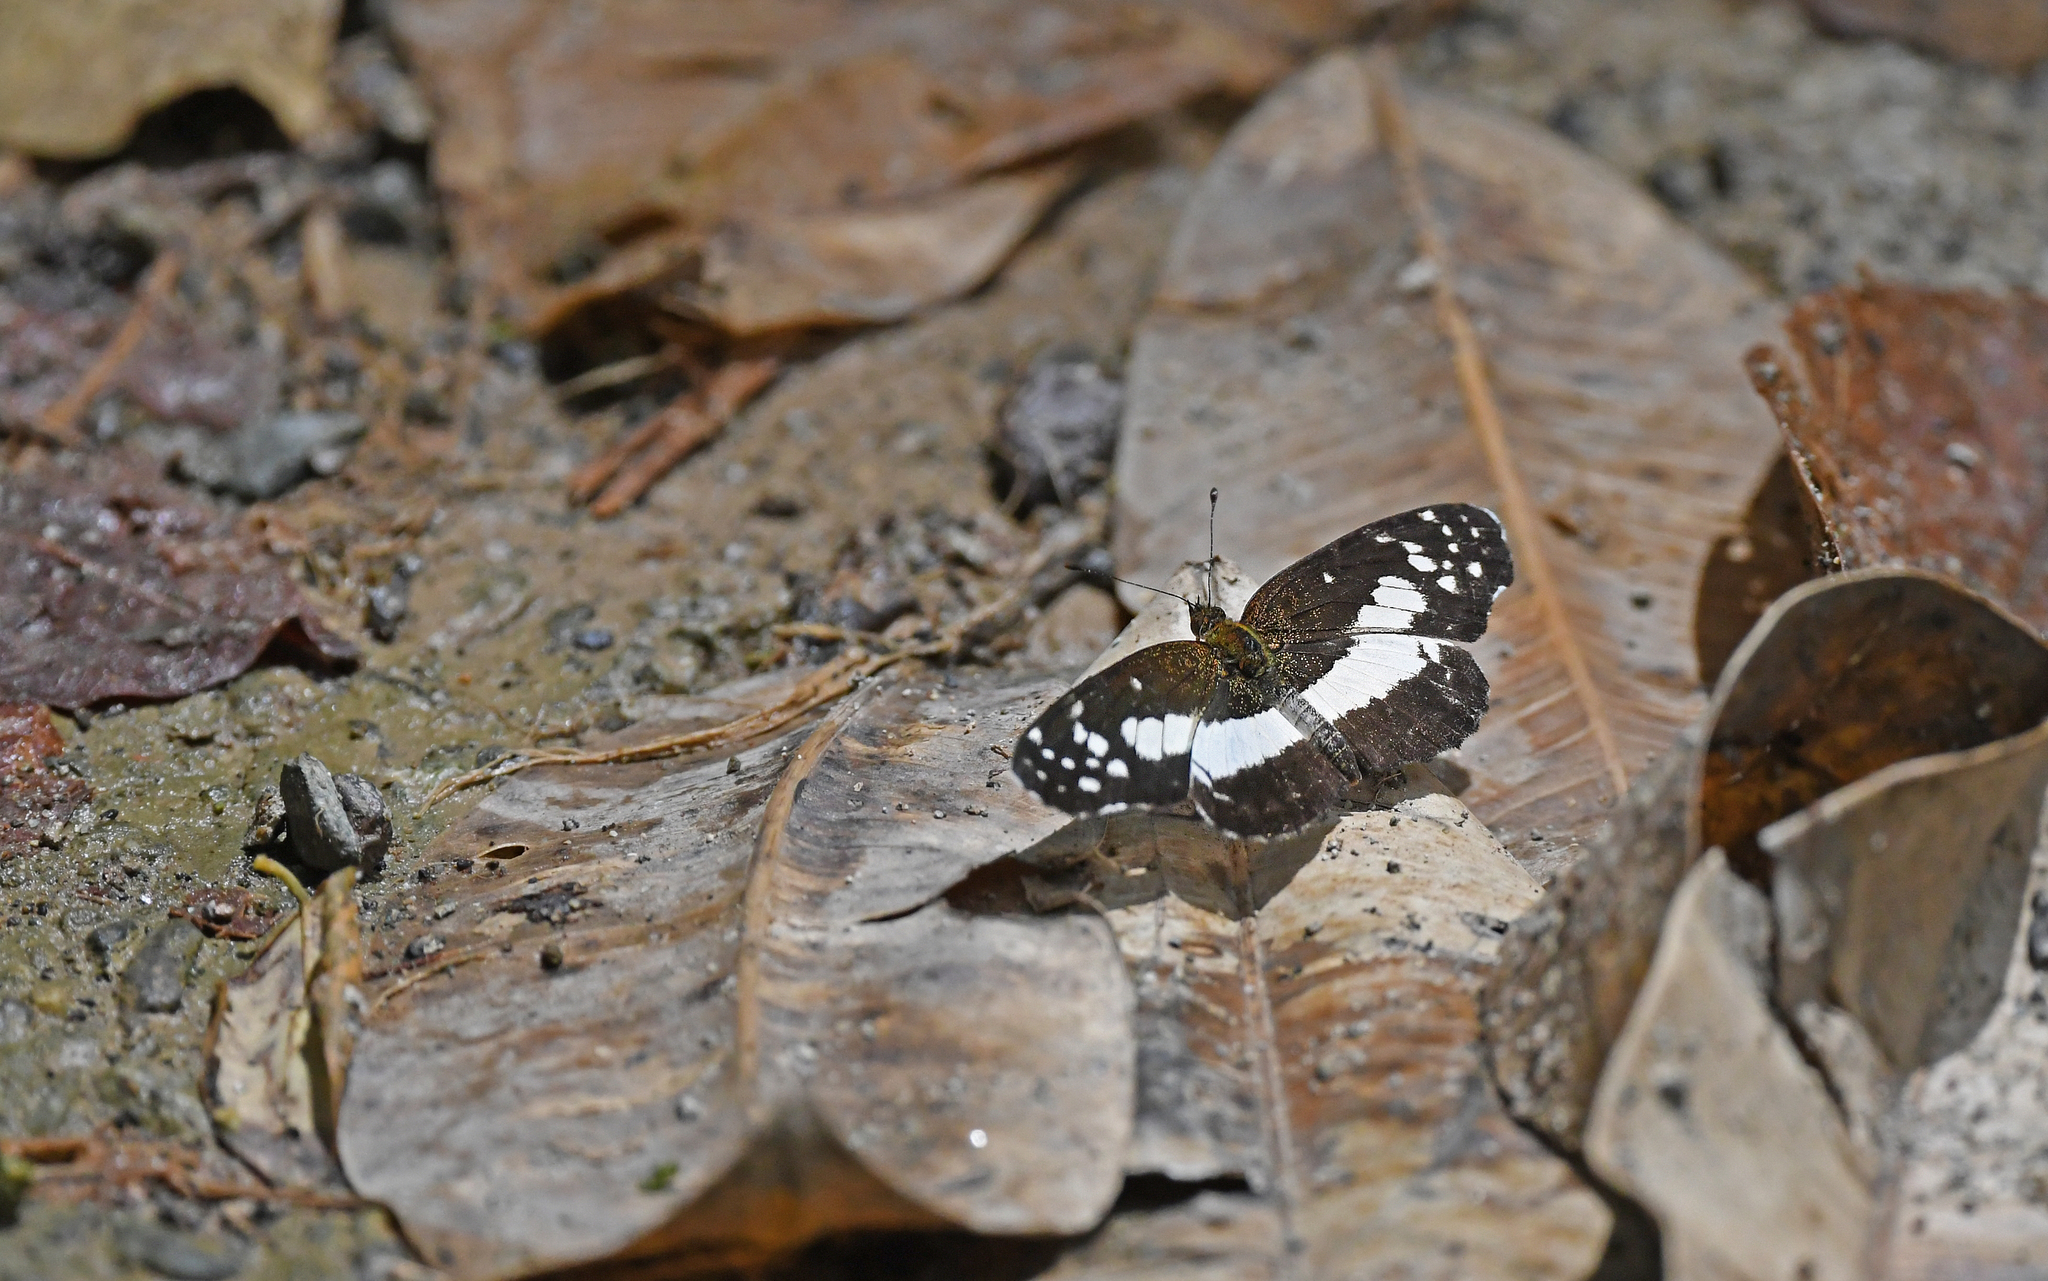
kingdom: Animalia
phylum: Arthropoda
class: Insecta
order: Lepidoptera
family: Nymphalidae
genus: Castilia
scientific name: Castilia ofella
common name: White-dotted crescent
